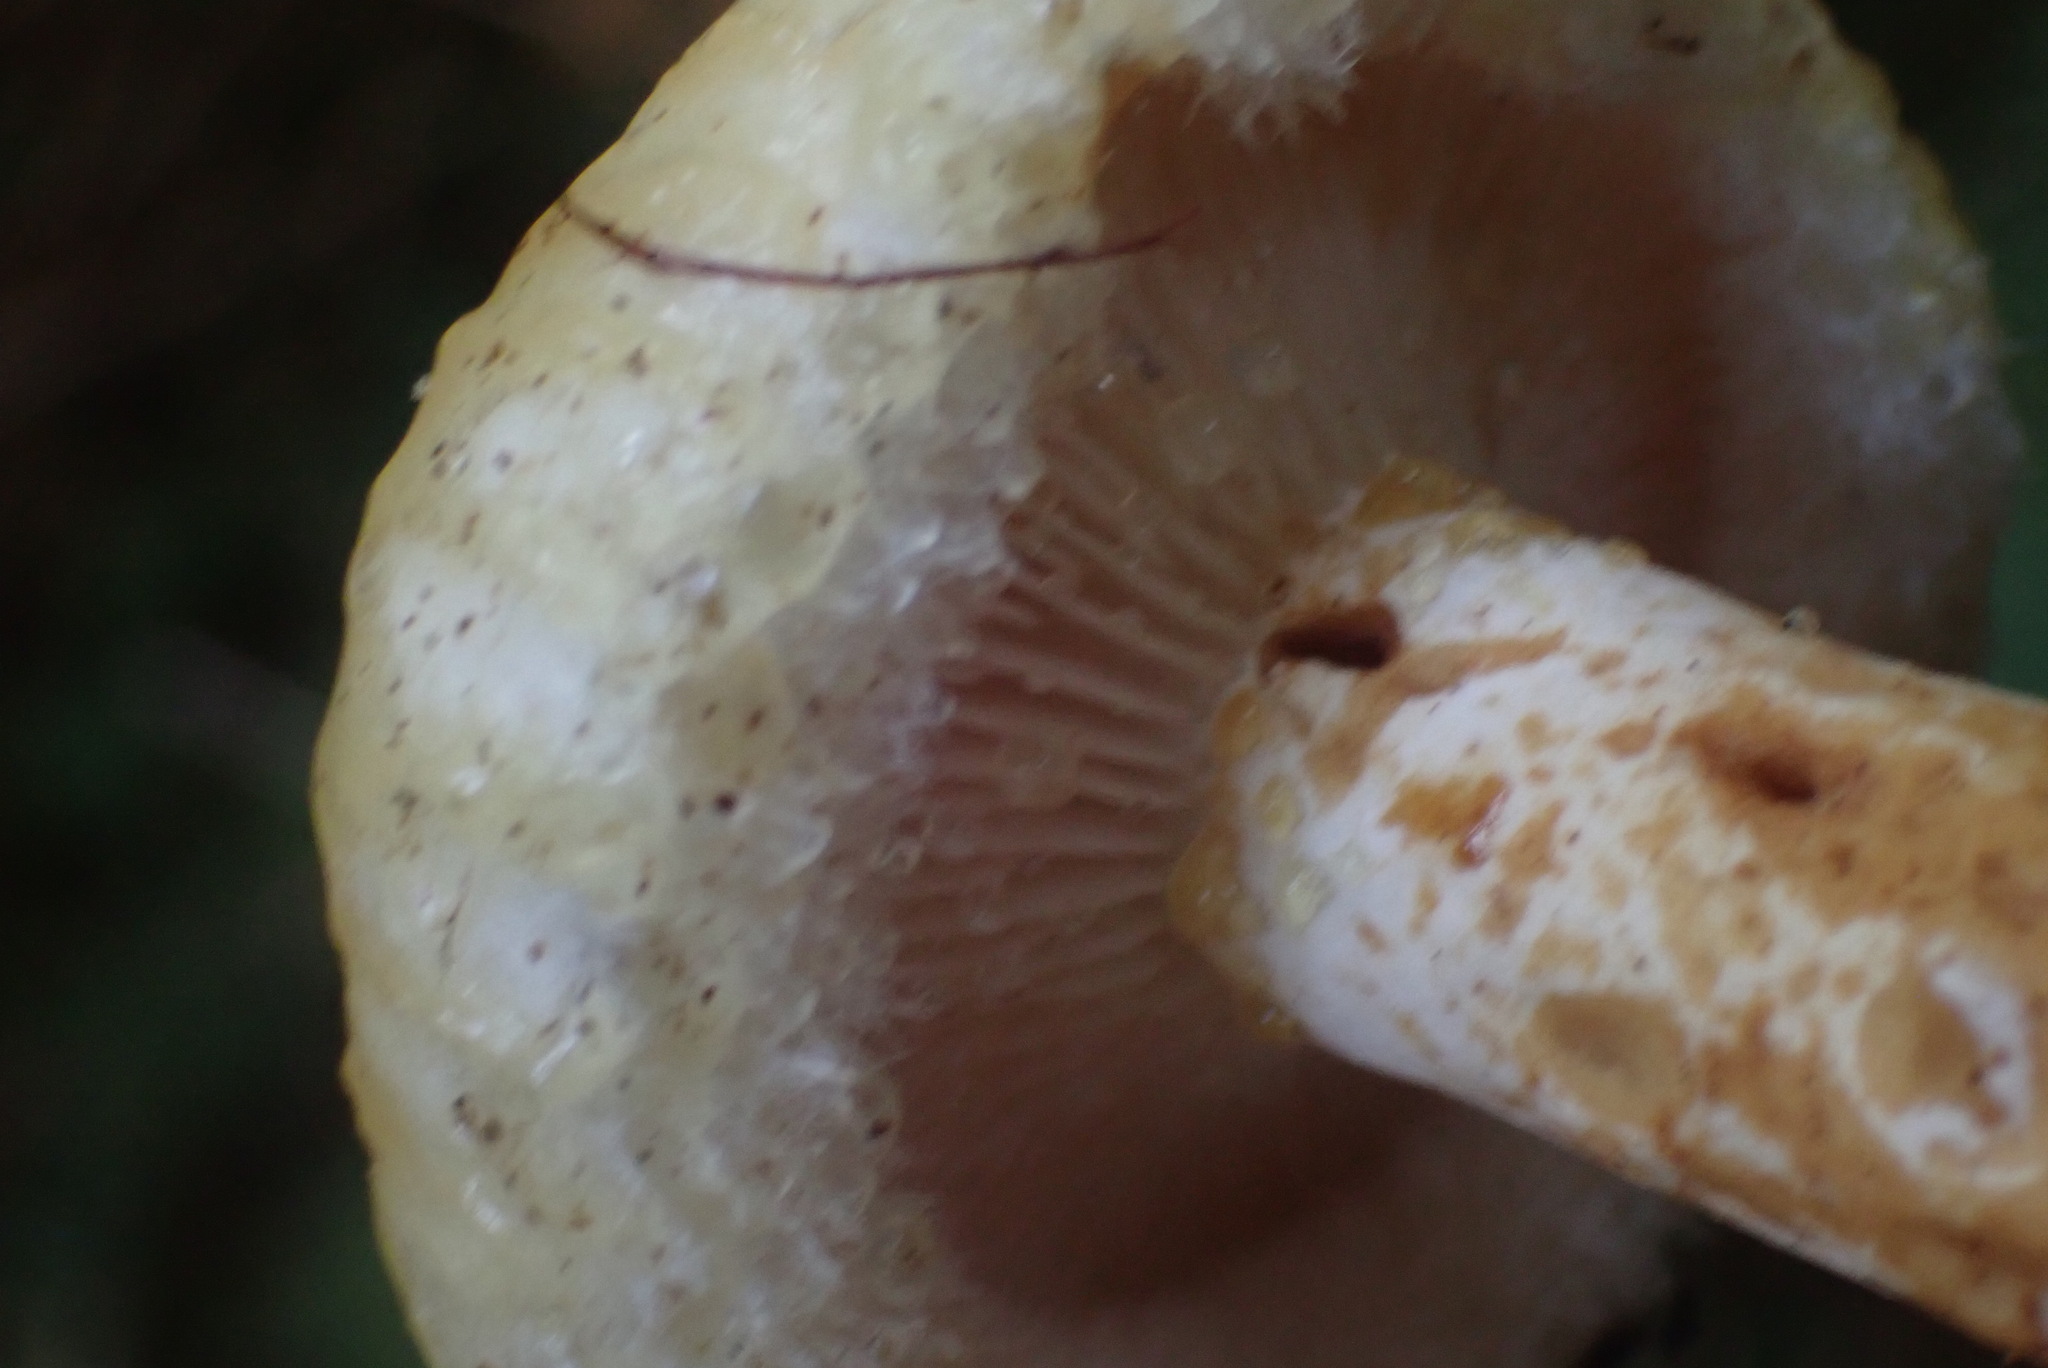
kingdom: Fungi
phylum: Basidiomycota
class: Agaricomycetes
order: Russulales
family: Russulaceae
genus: Lactarius
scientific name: Lactarius scrobiculatus
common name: Spotted milkcap
